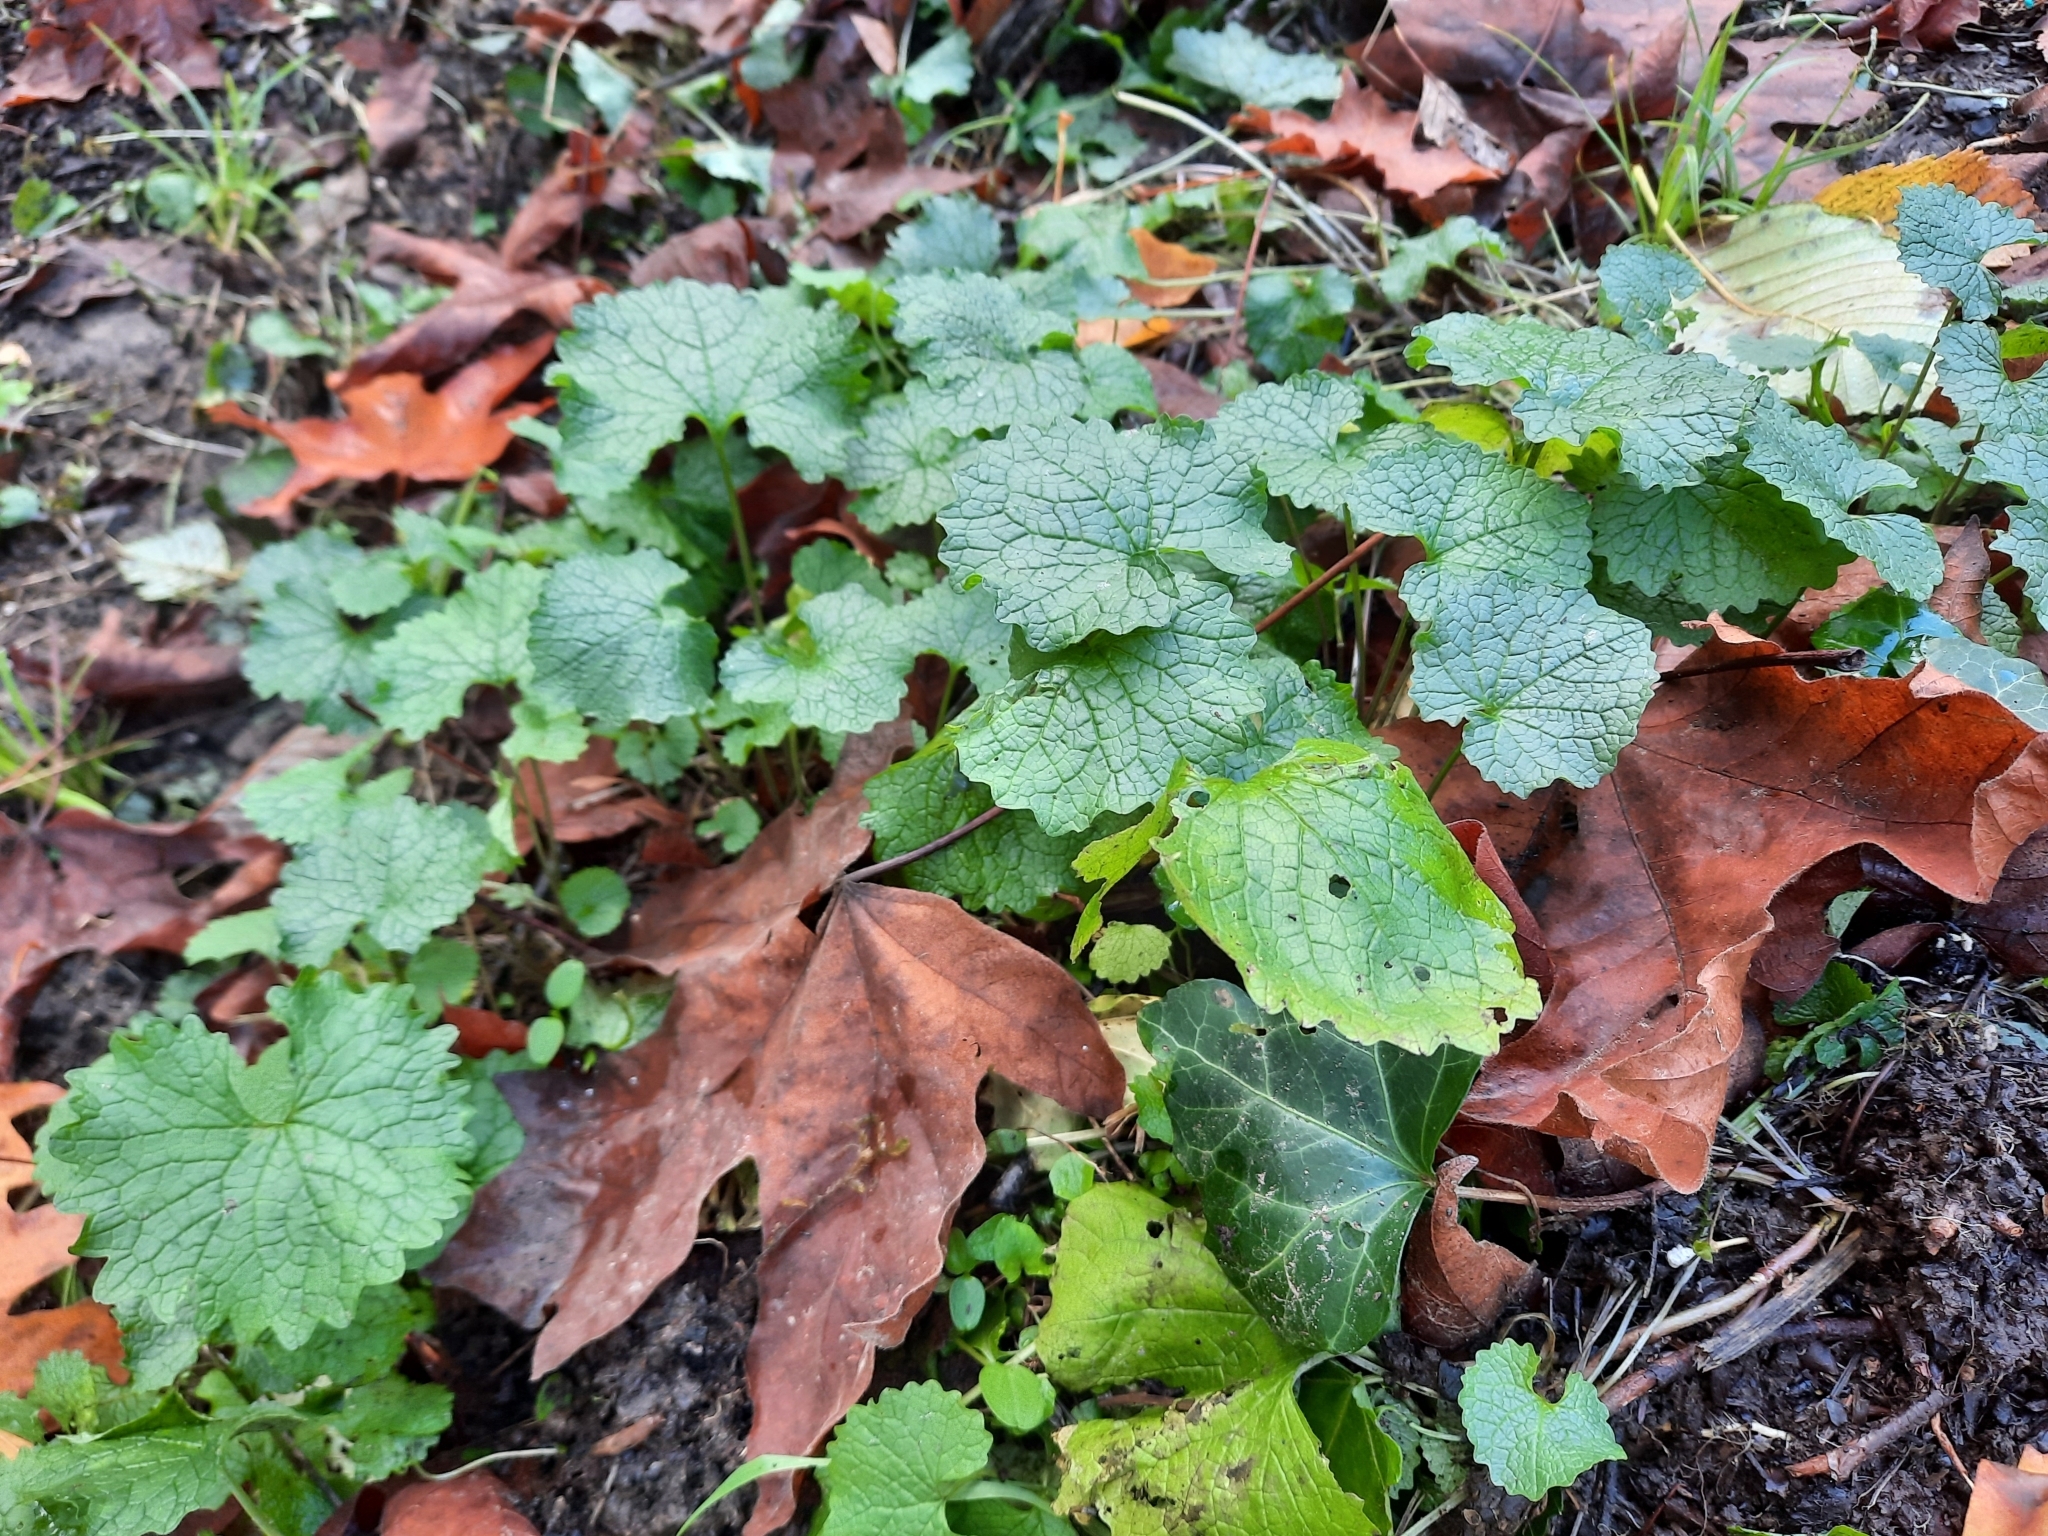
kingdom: Plantae
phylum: Tracheophyta
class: Magnoliopsida
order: Brassicales
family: Brassicaceae
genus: Alliaria
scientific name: Alliaria petiolata
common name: Garlic mustard
